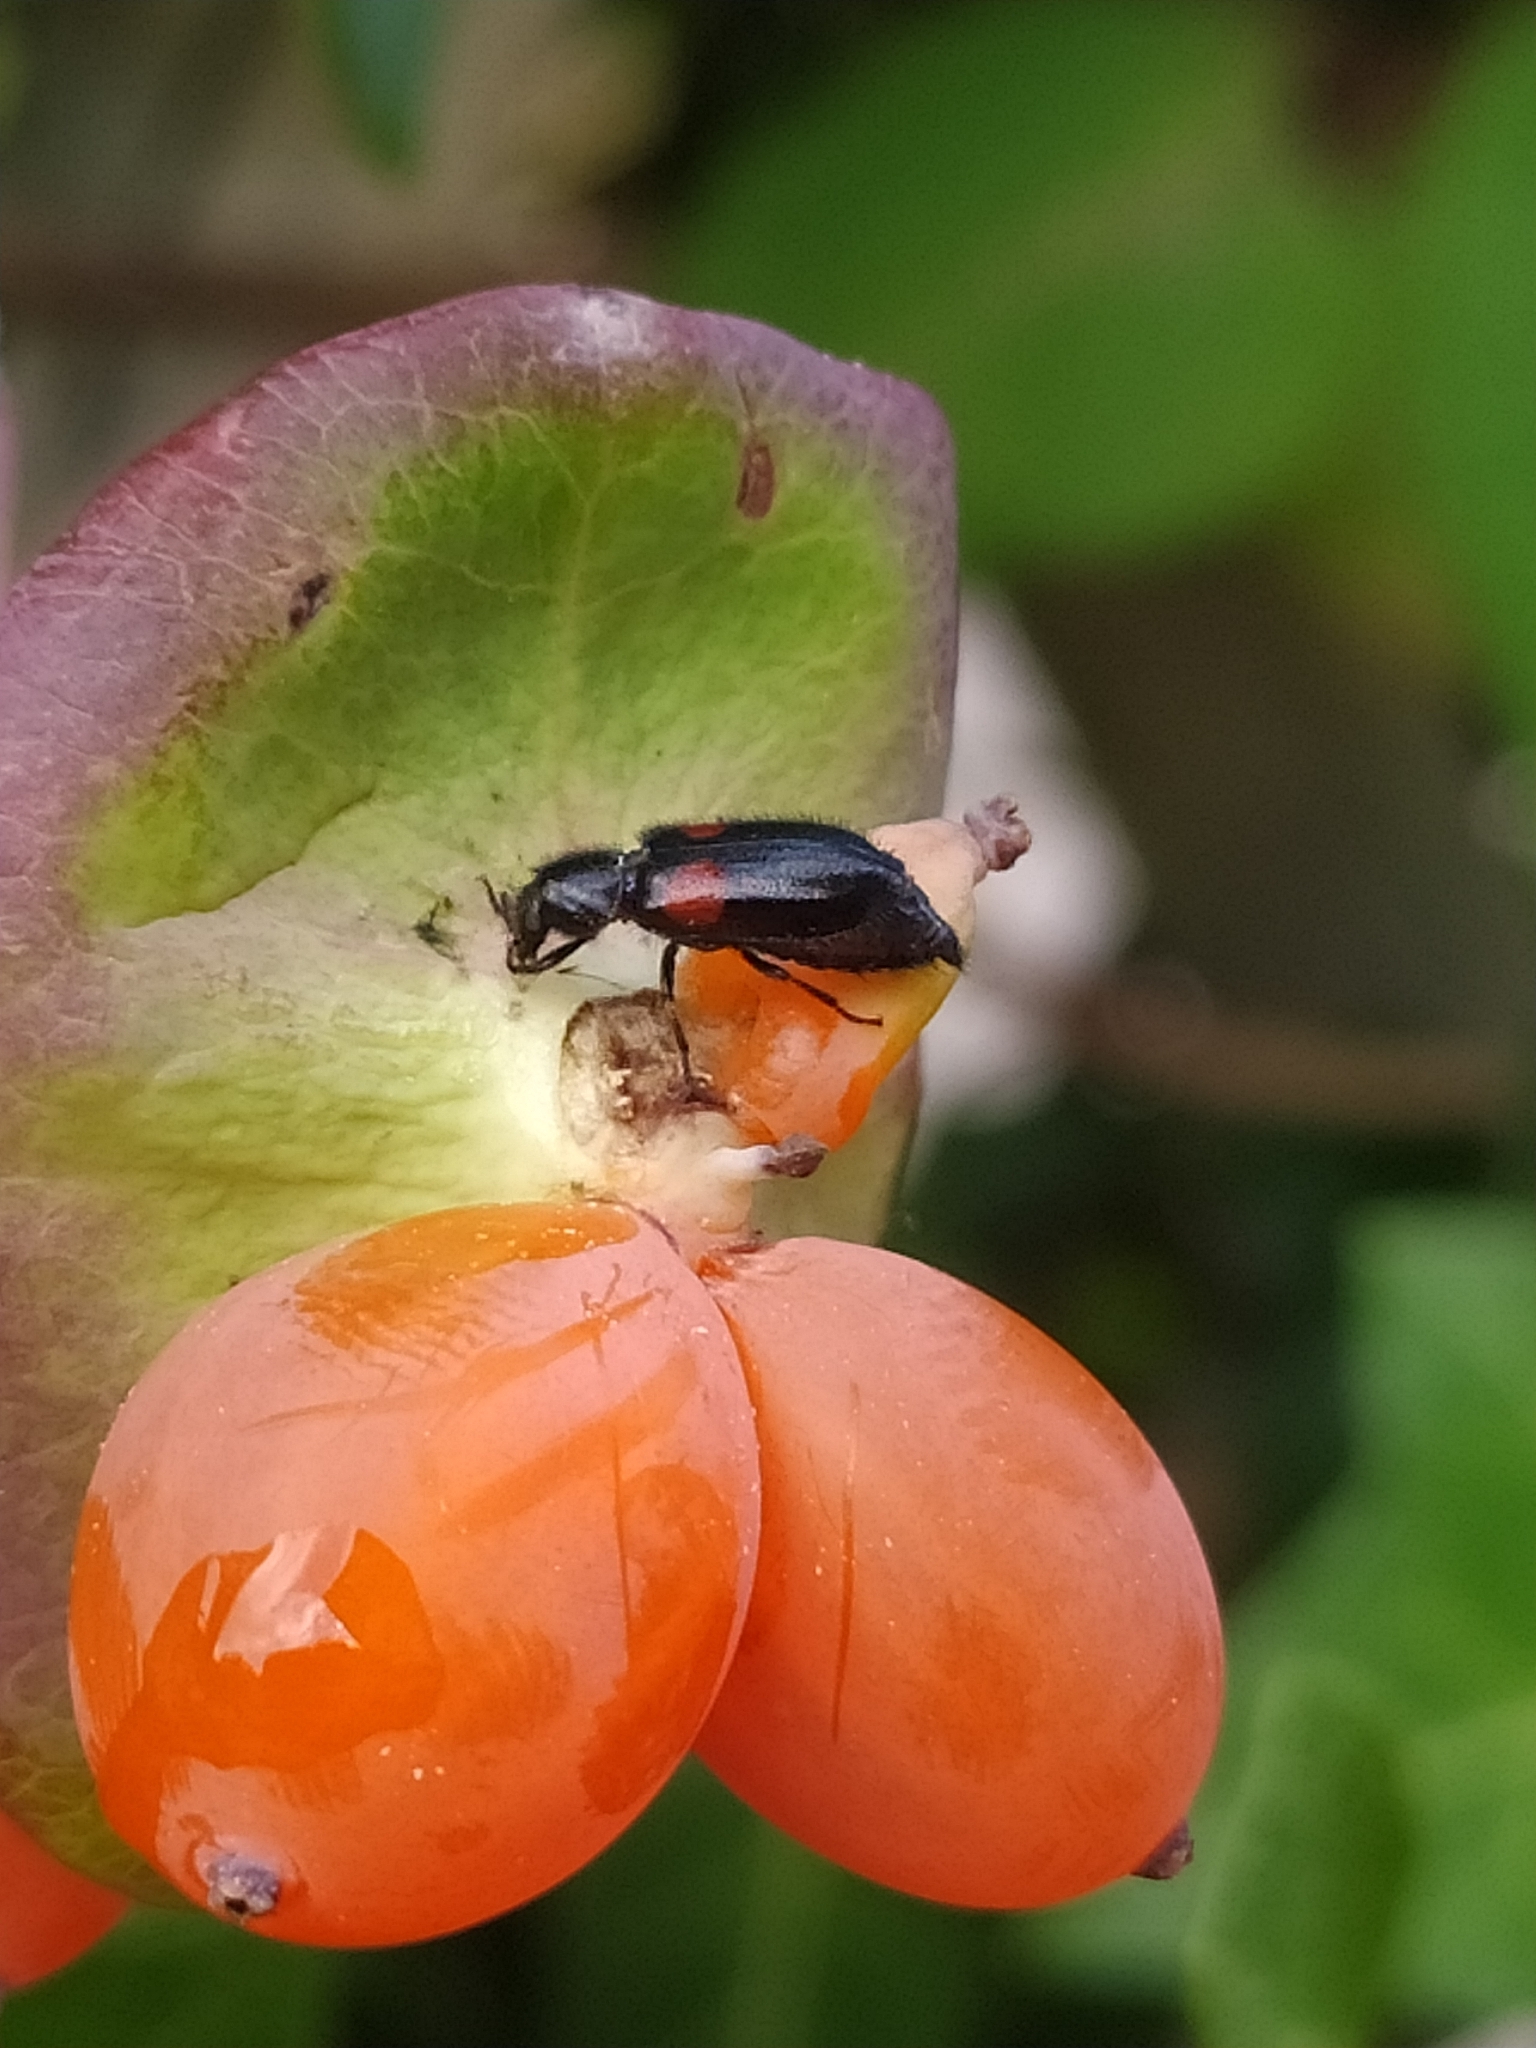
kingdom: Animalia
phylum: Arthropoda
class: Insecta
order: Coleoptera
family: Melyridae
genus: Divales
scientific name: Divales bipustulatus
